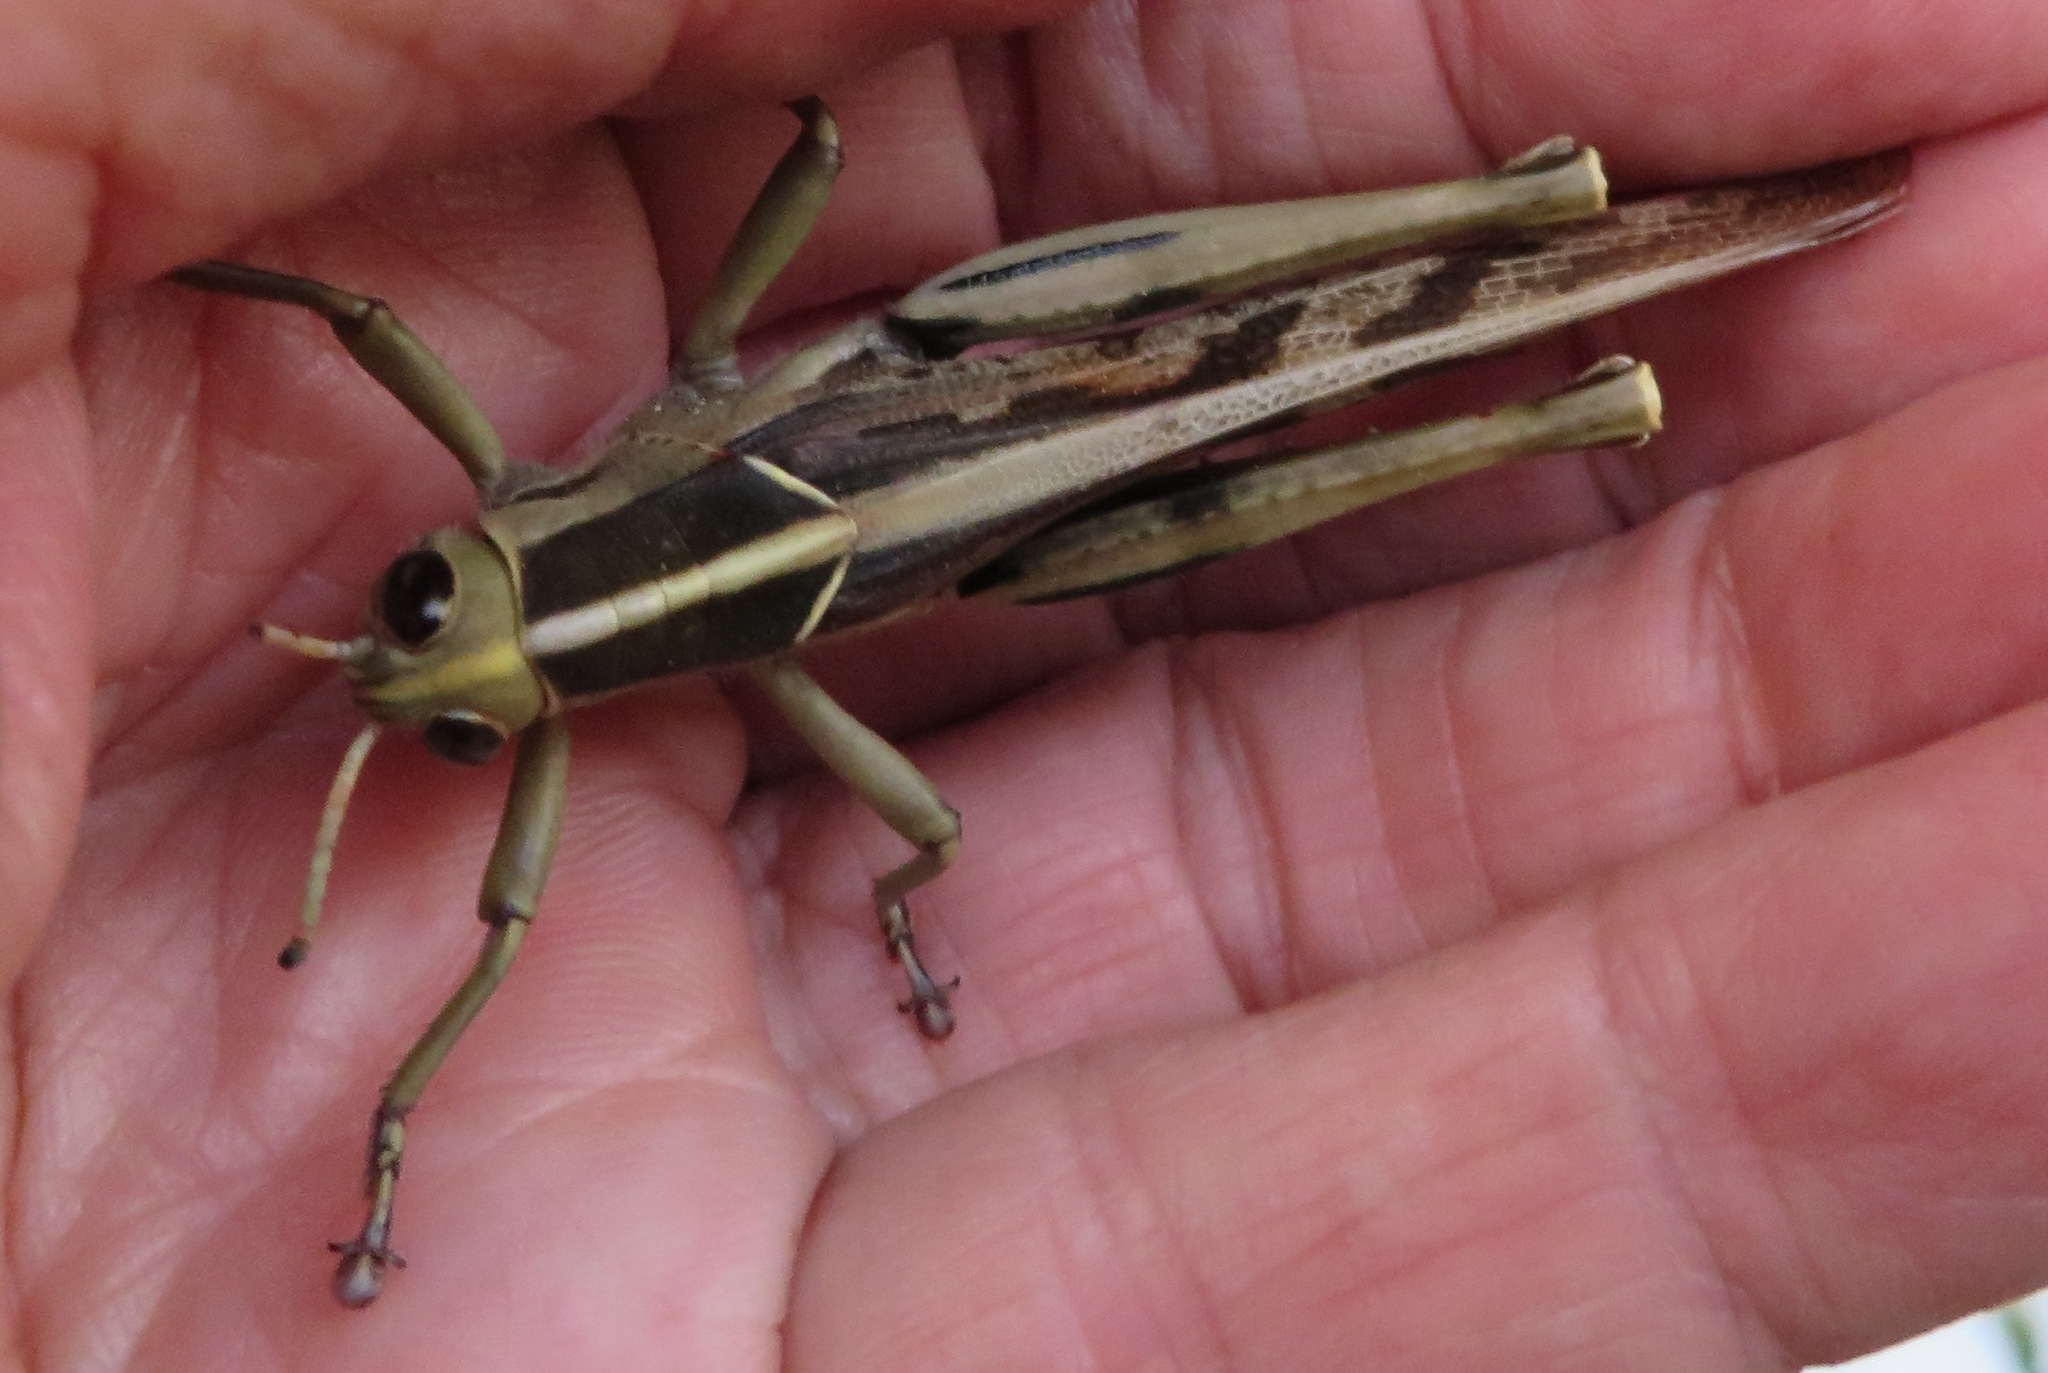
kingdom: Animalia
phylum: Arthropoda
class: Insecta
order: Orthoptera
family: Acrididae
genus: Acanthacris
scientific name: Acanthacris ruficornis
